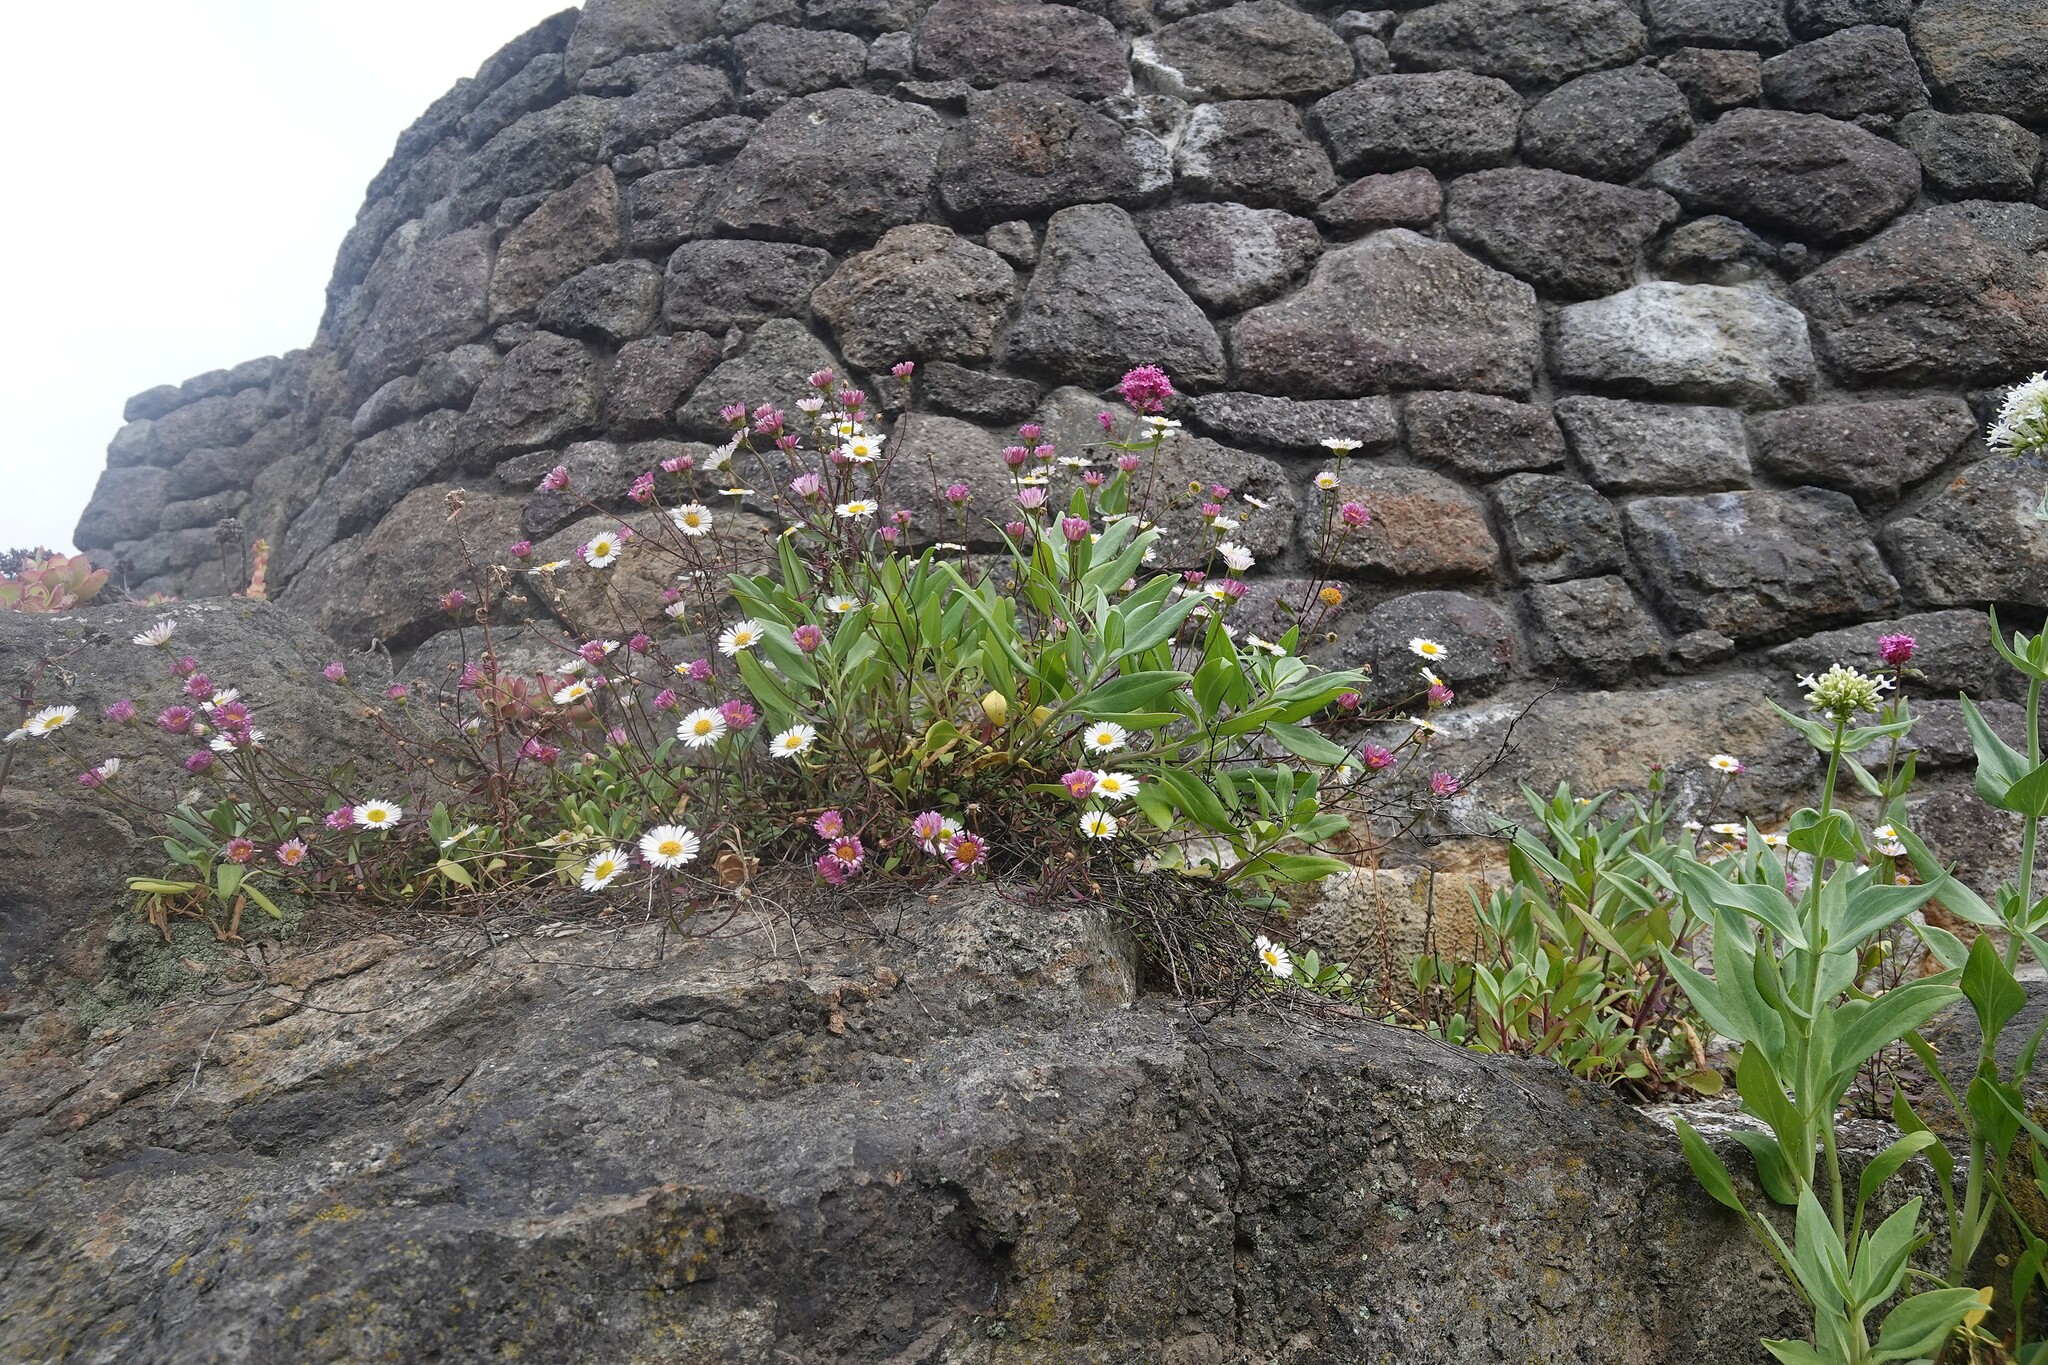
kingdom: Plantae
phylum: Tracheophyta
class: Magnoliopsida
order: Asterales
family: Asteraceae
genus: Erigeron
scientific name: Erigeron karvinskianus
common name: Mexican fleabane
